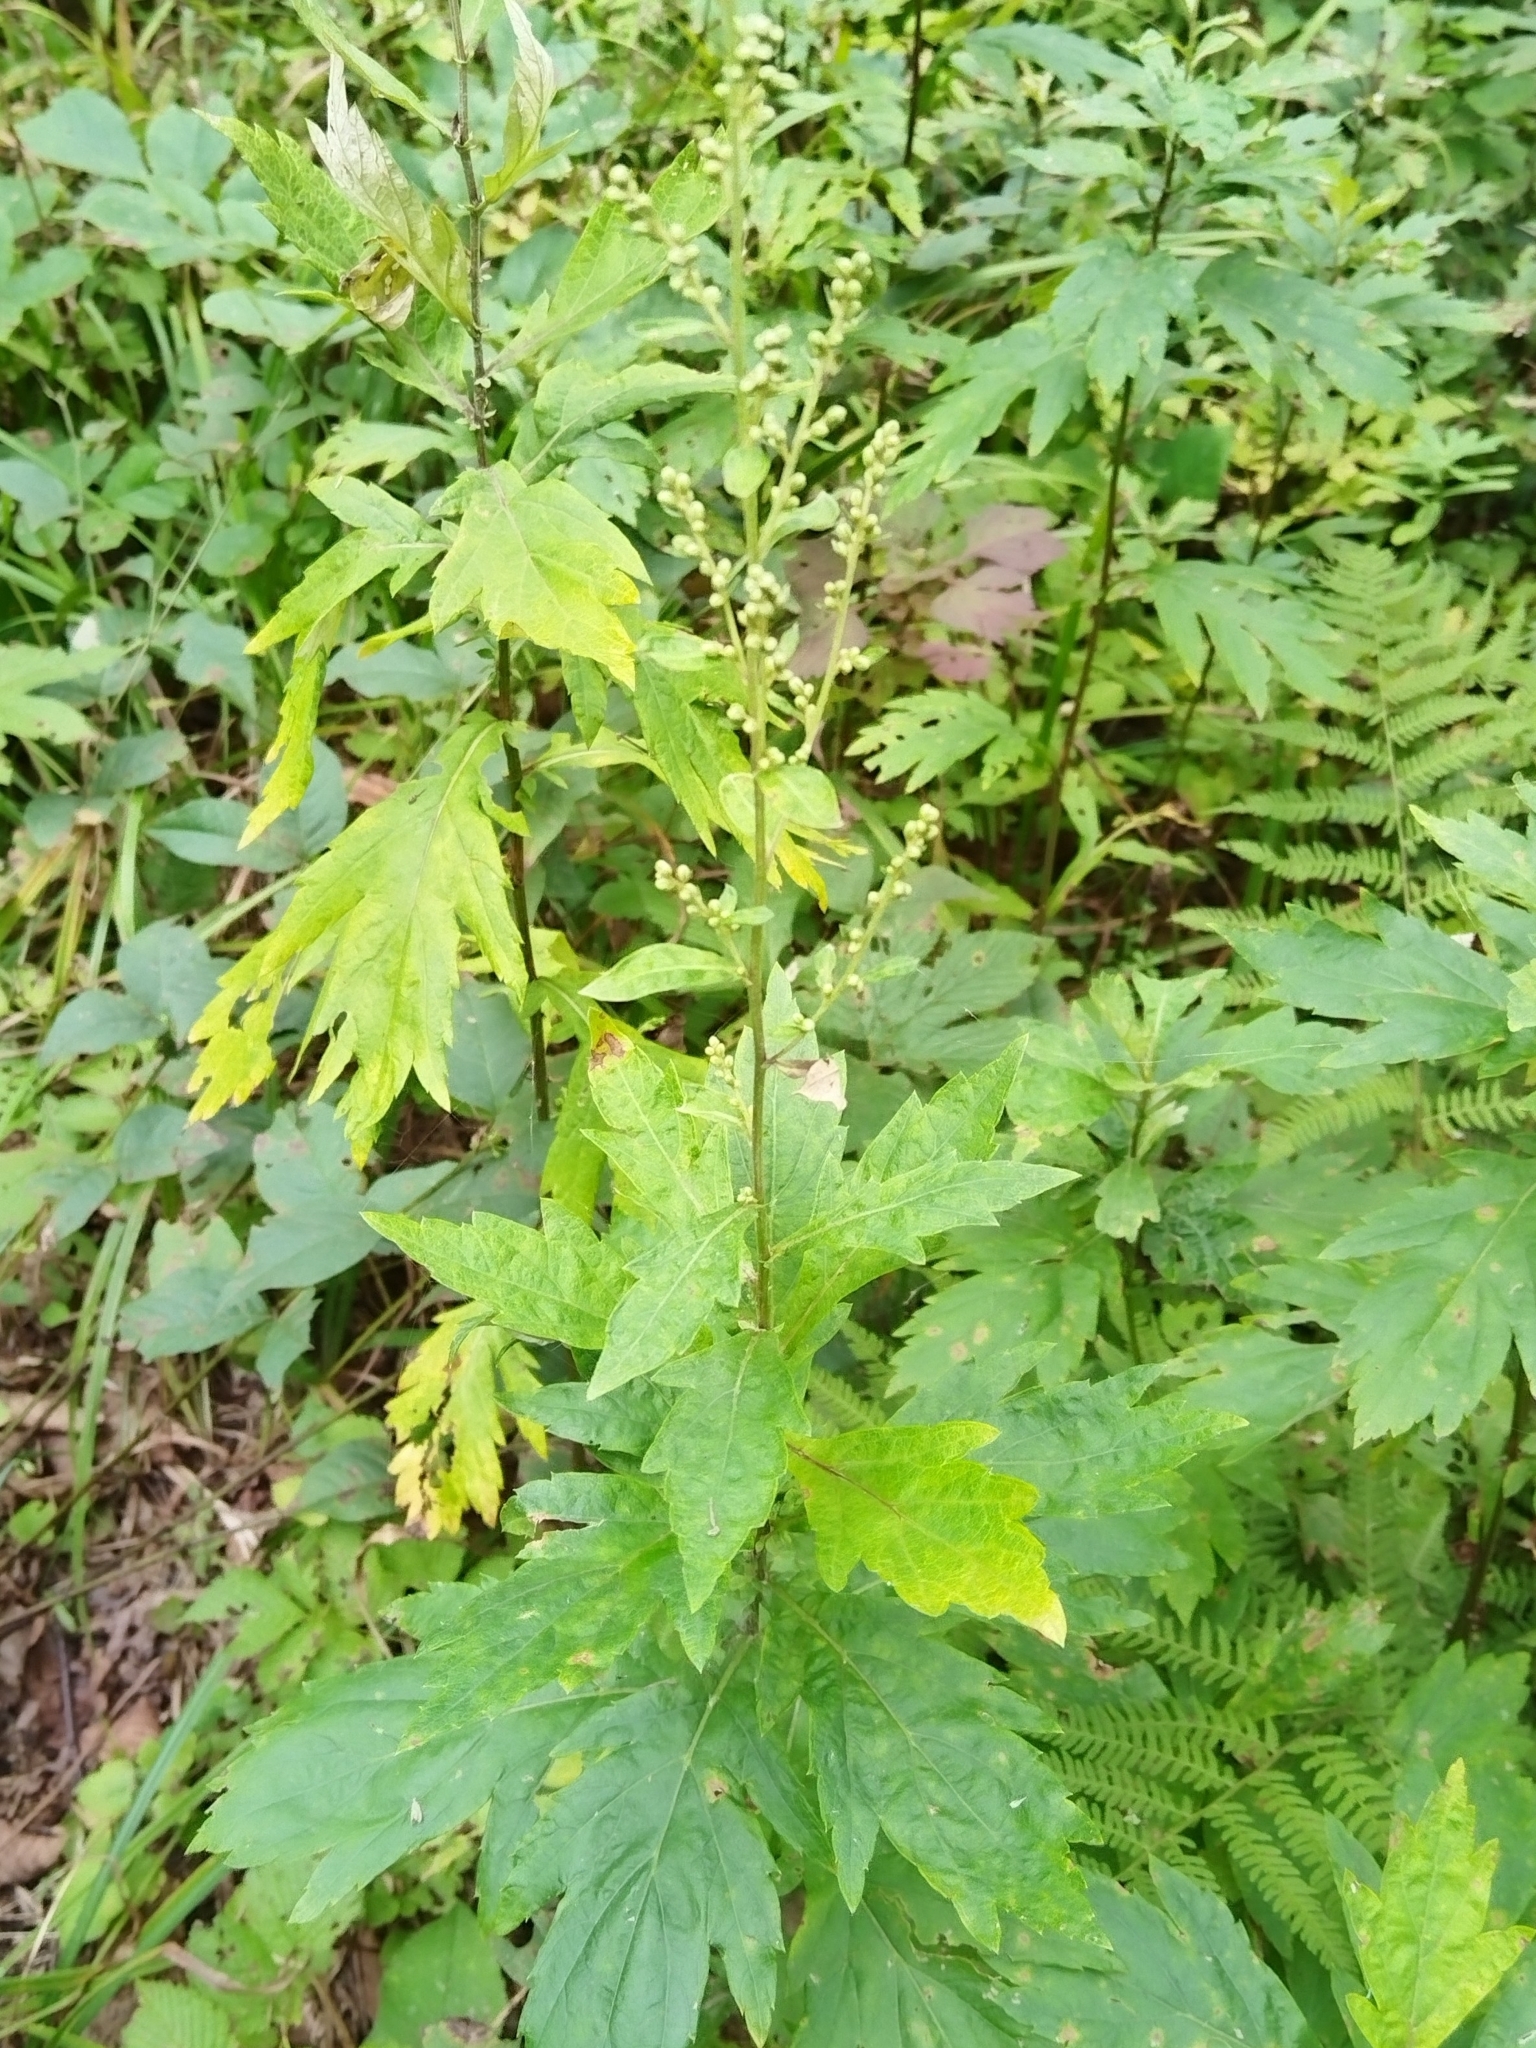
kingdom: Plantae
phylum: Tracheophyta
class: Magnoliopsida
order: Asterales
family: Asteraceae
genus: Artemisia
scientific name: Artemisia stolonifera
